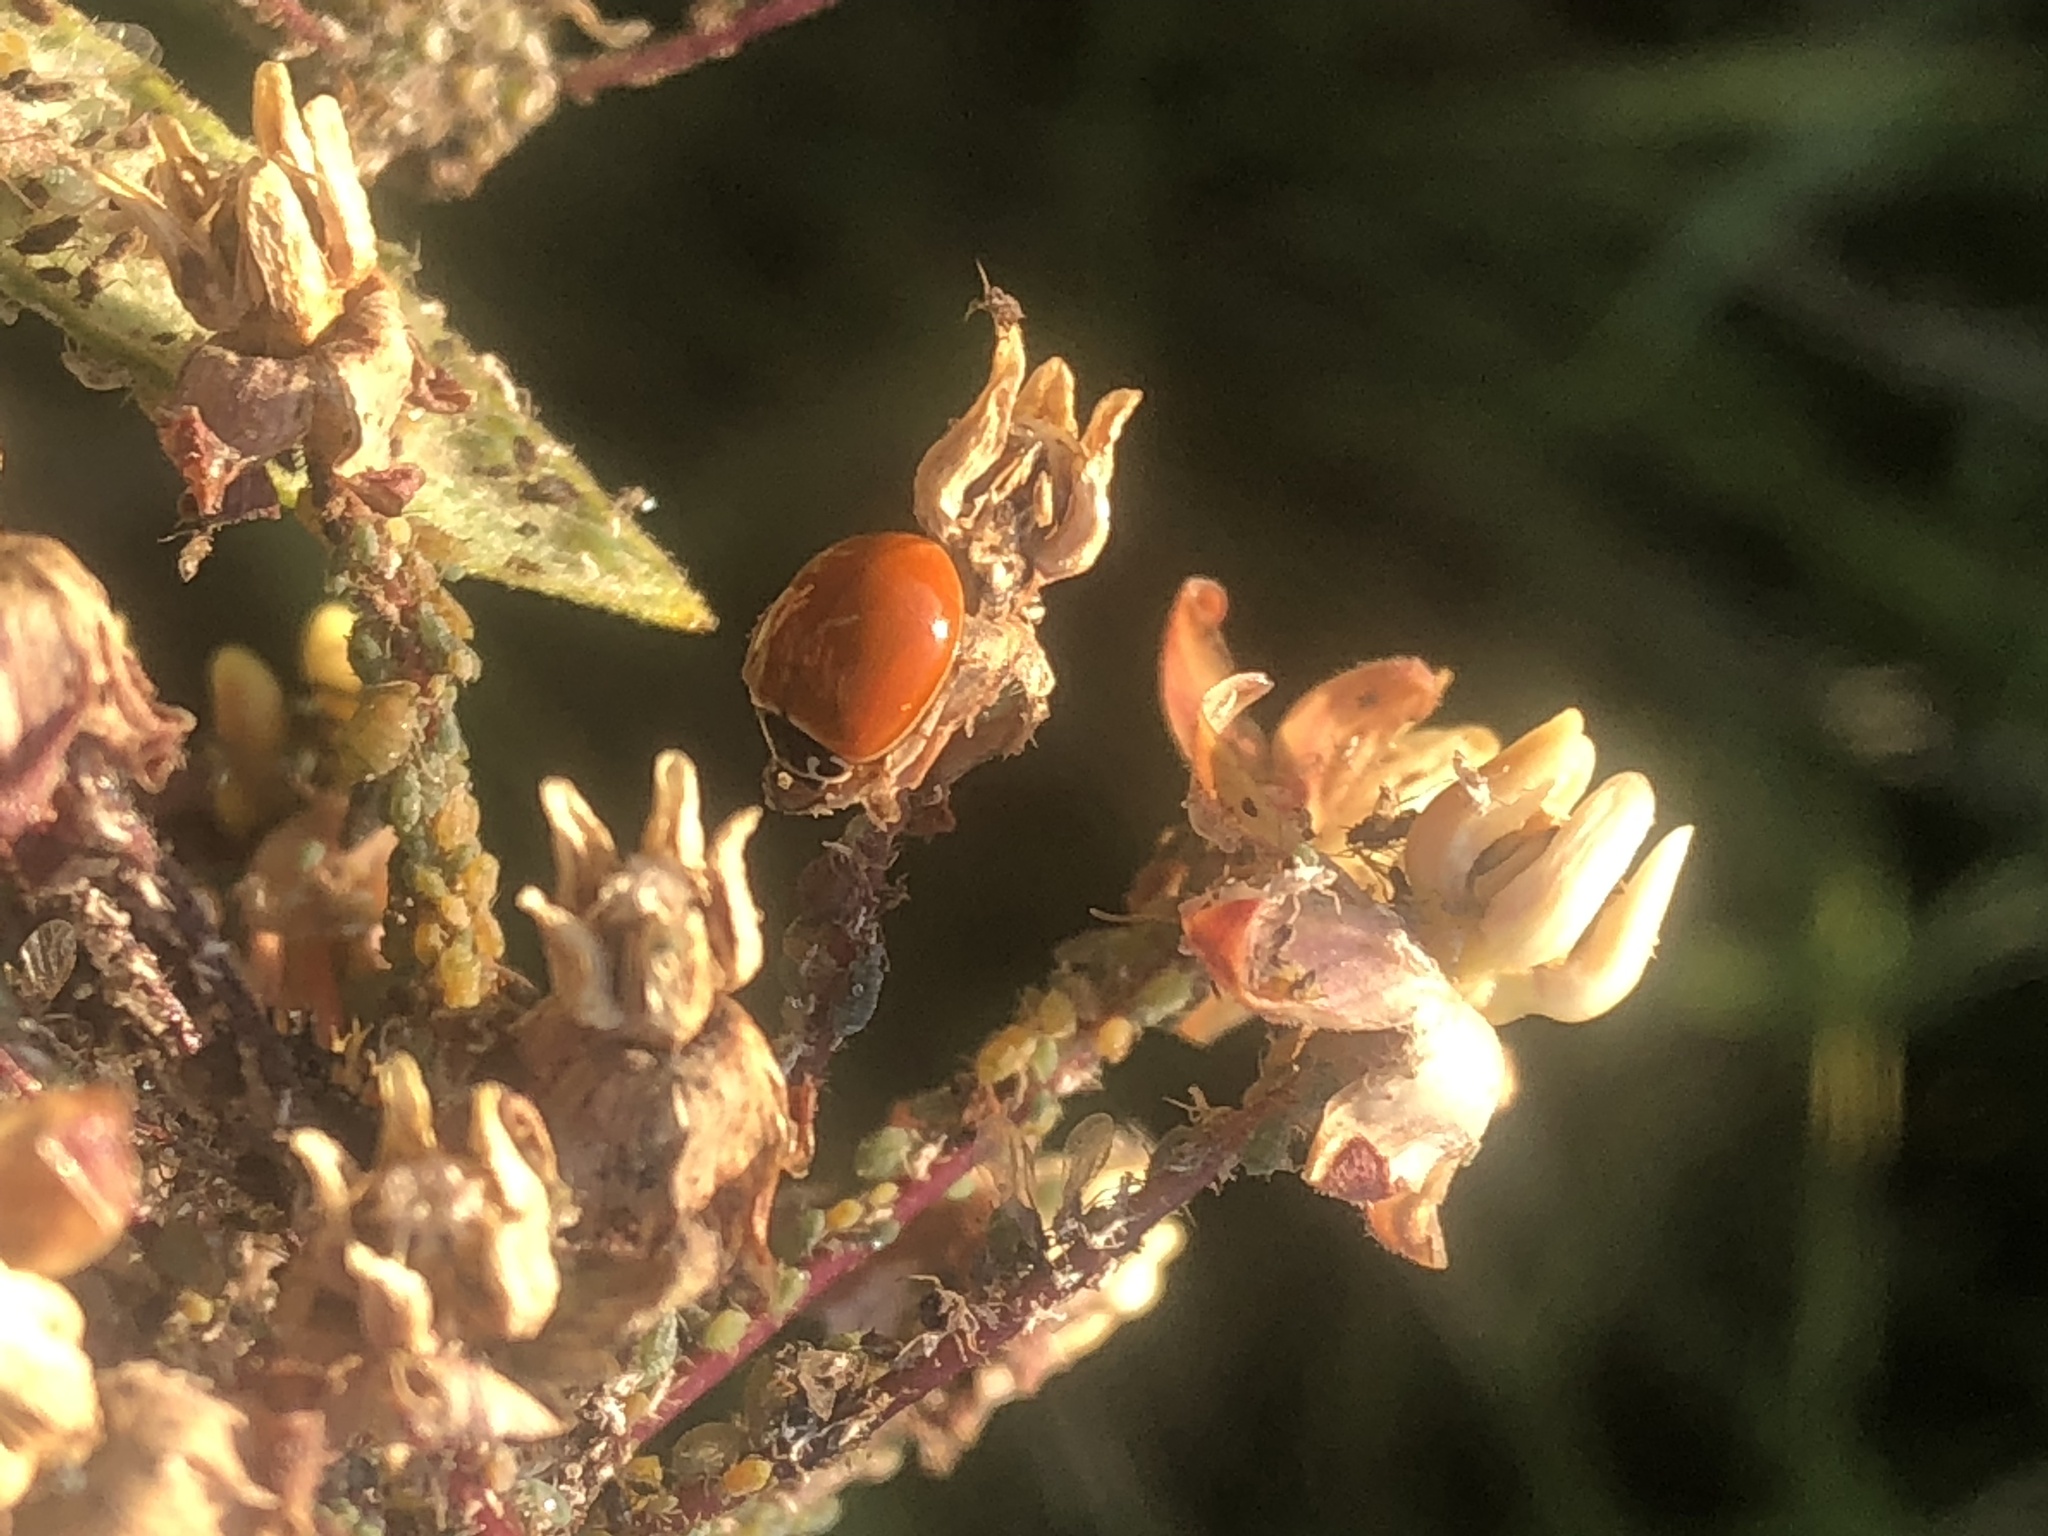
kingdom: Animalia
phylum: Arthropoda
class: Insecta
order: Coleoptera
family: Coccinellidae
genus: Cycloneda
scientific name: Cycloneda munda
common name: Polished lady beetle
